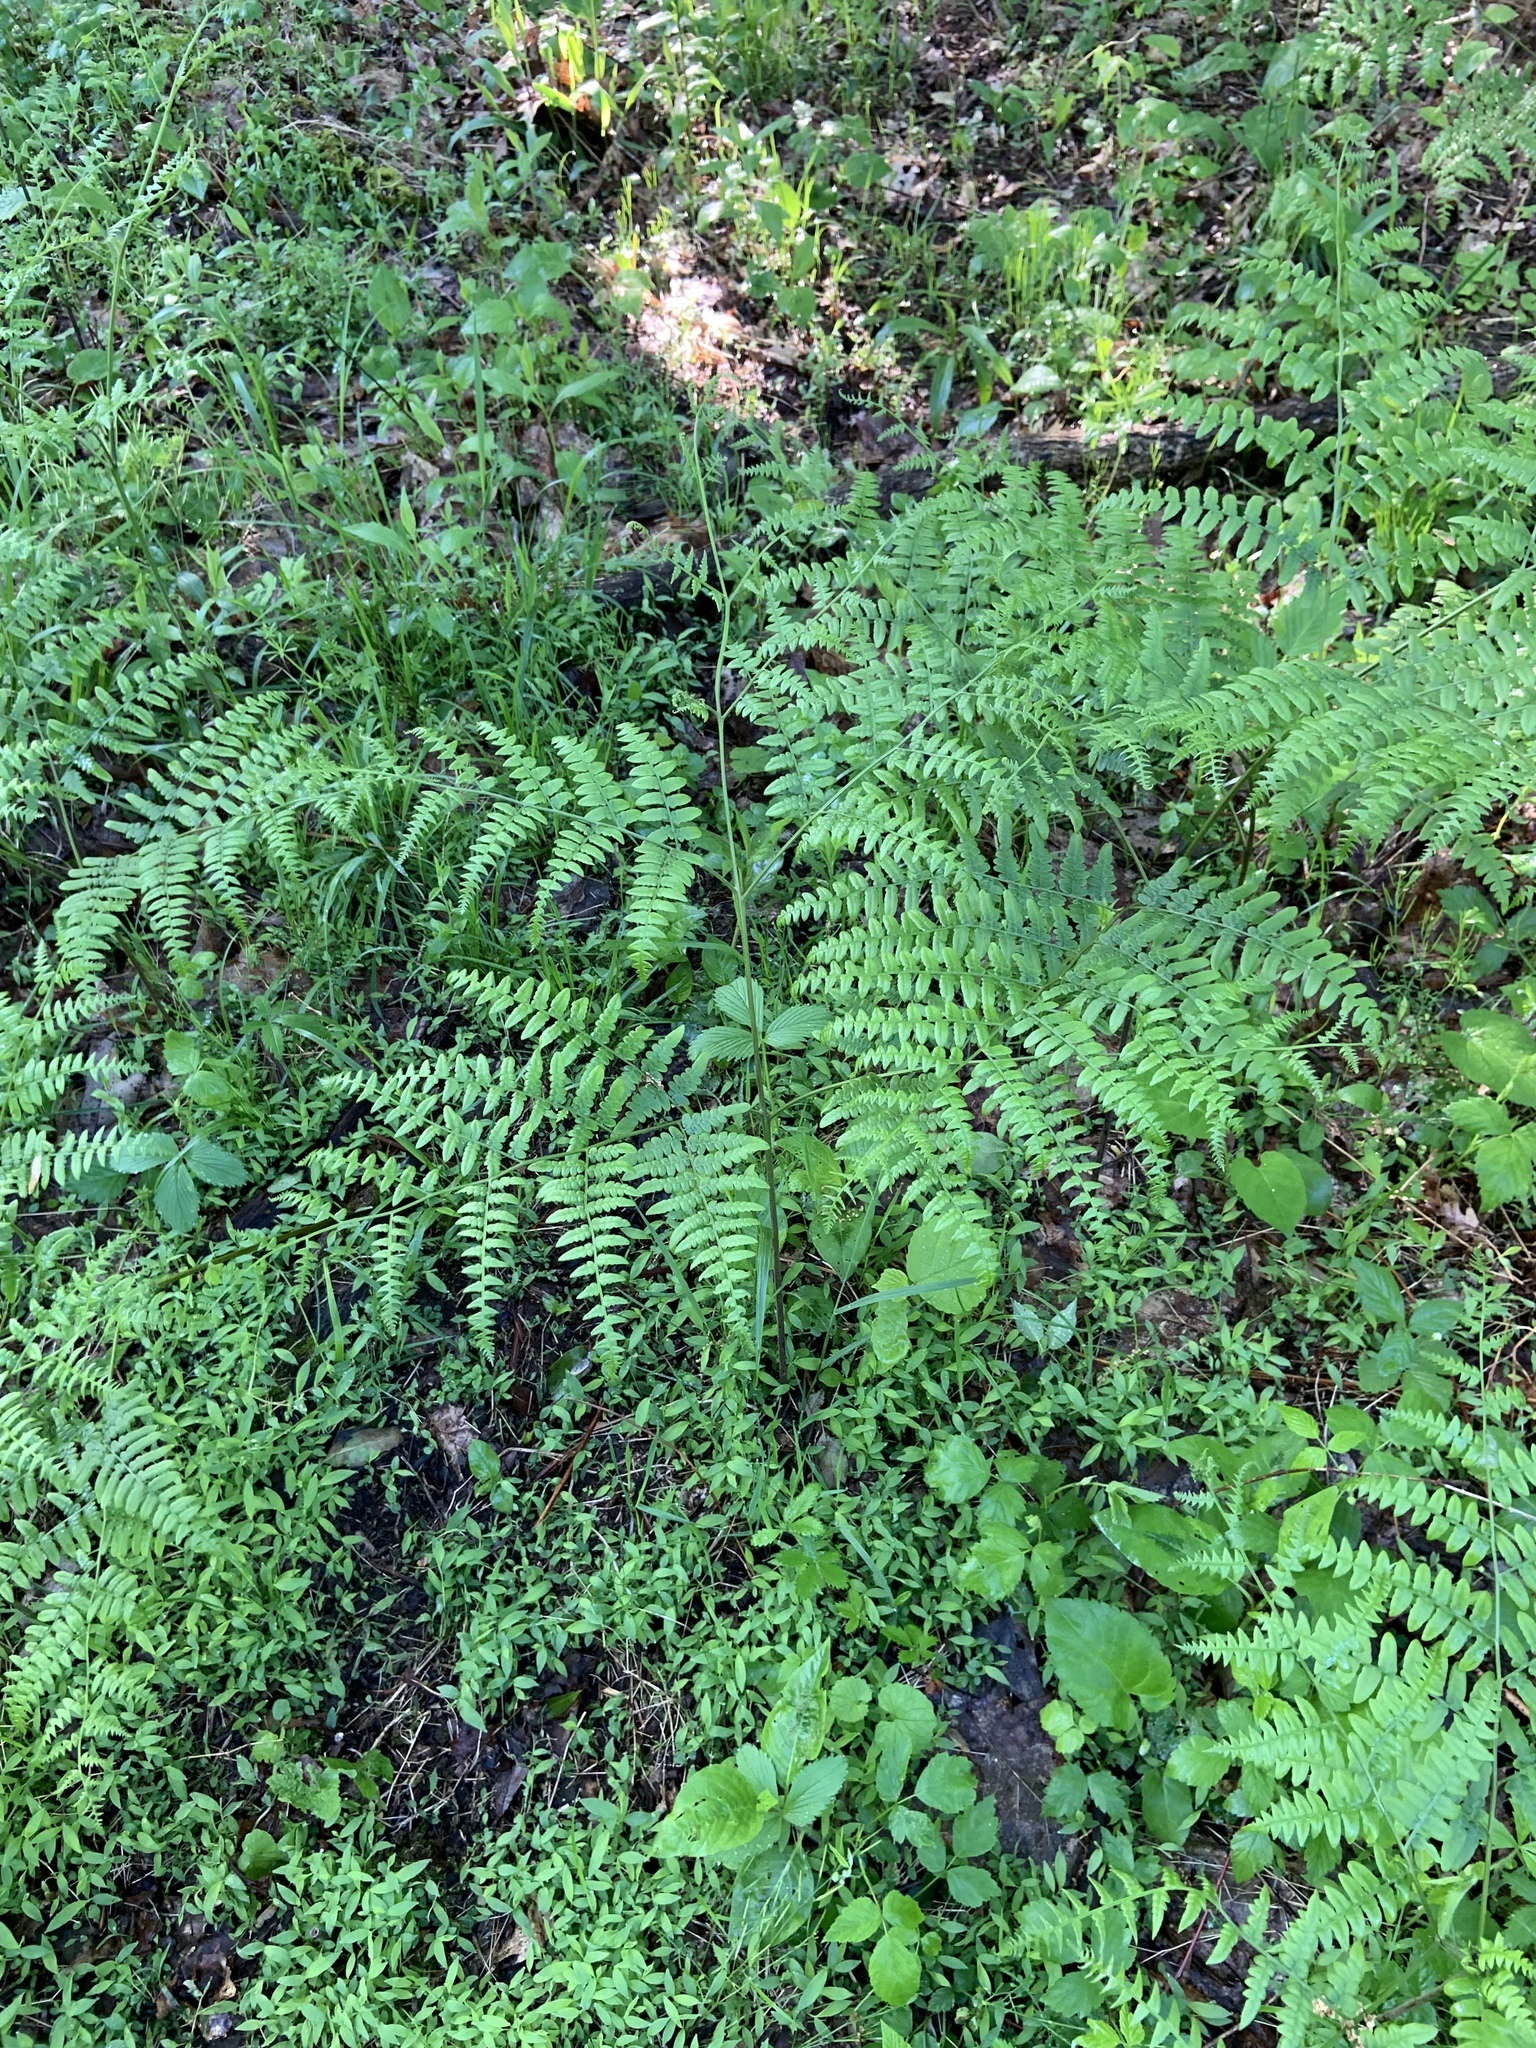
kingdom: Plantae
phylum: Tracheophyta
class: Polypodiopsida
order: Polypodiales
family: Dennstaedtiaceae
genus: Pteridium
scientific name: Pteridium aquilinum
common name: Bracken
